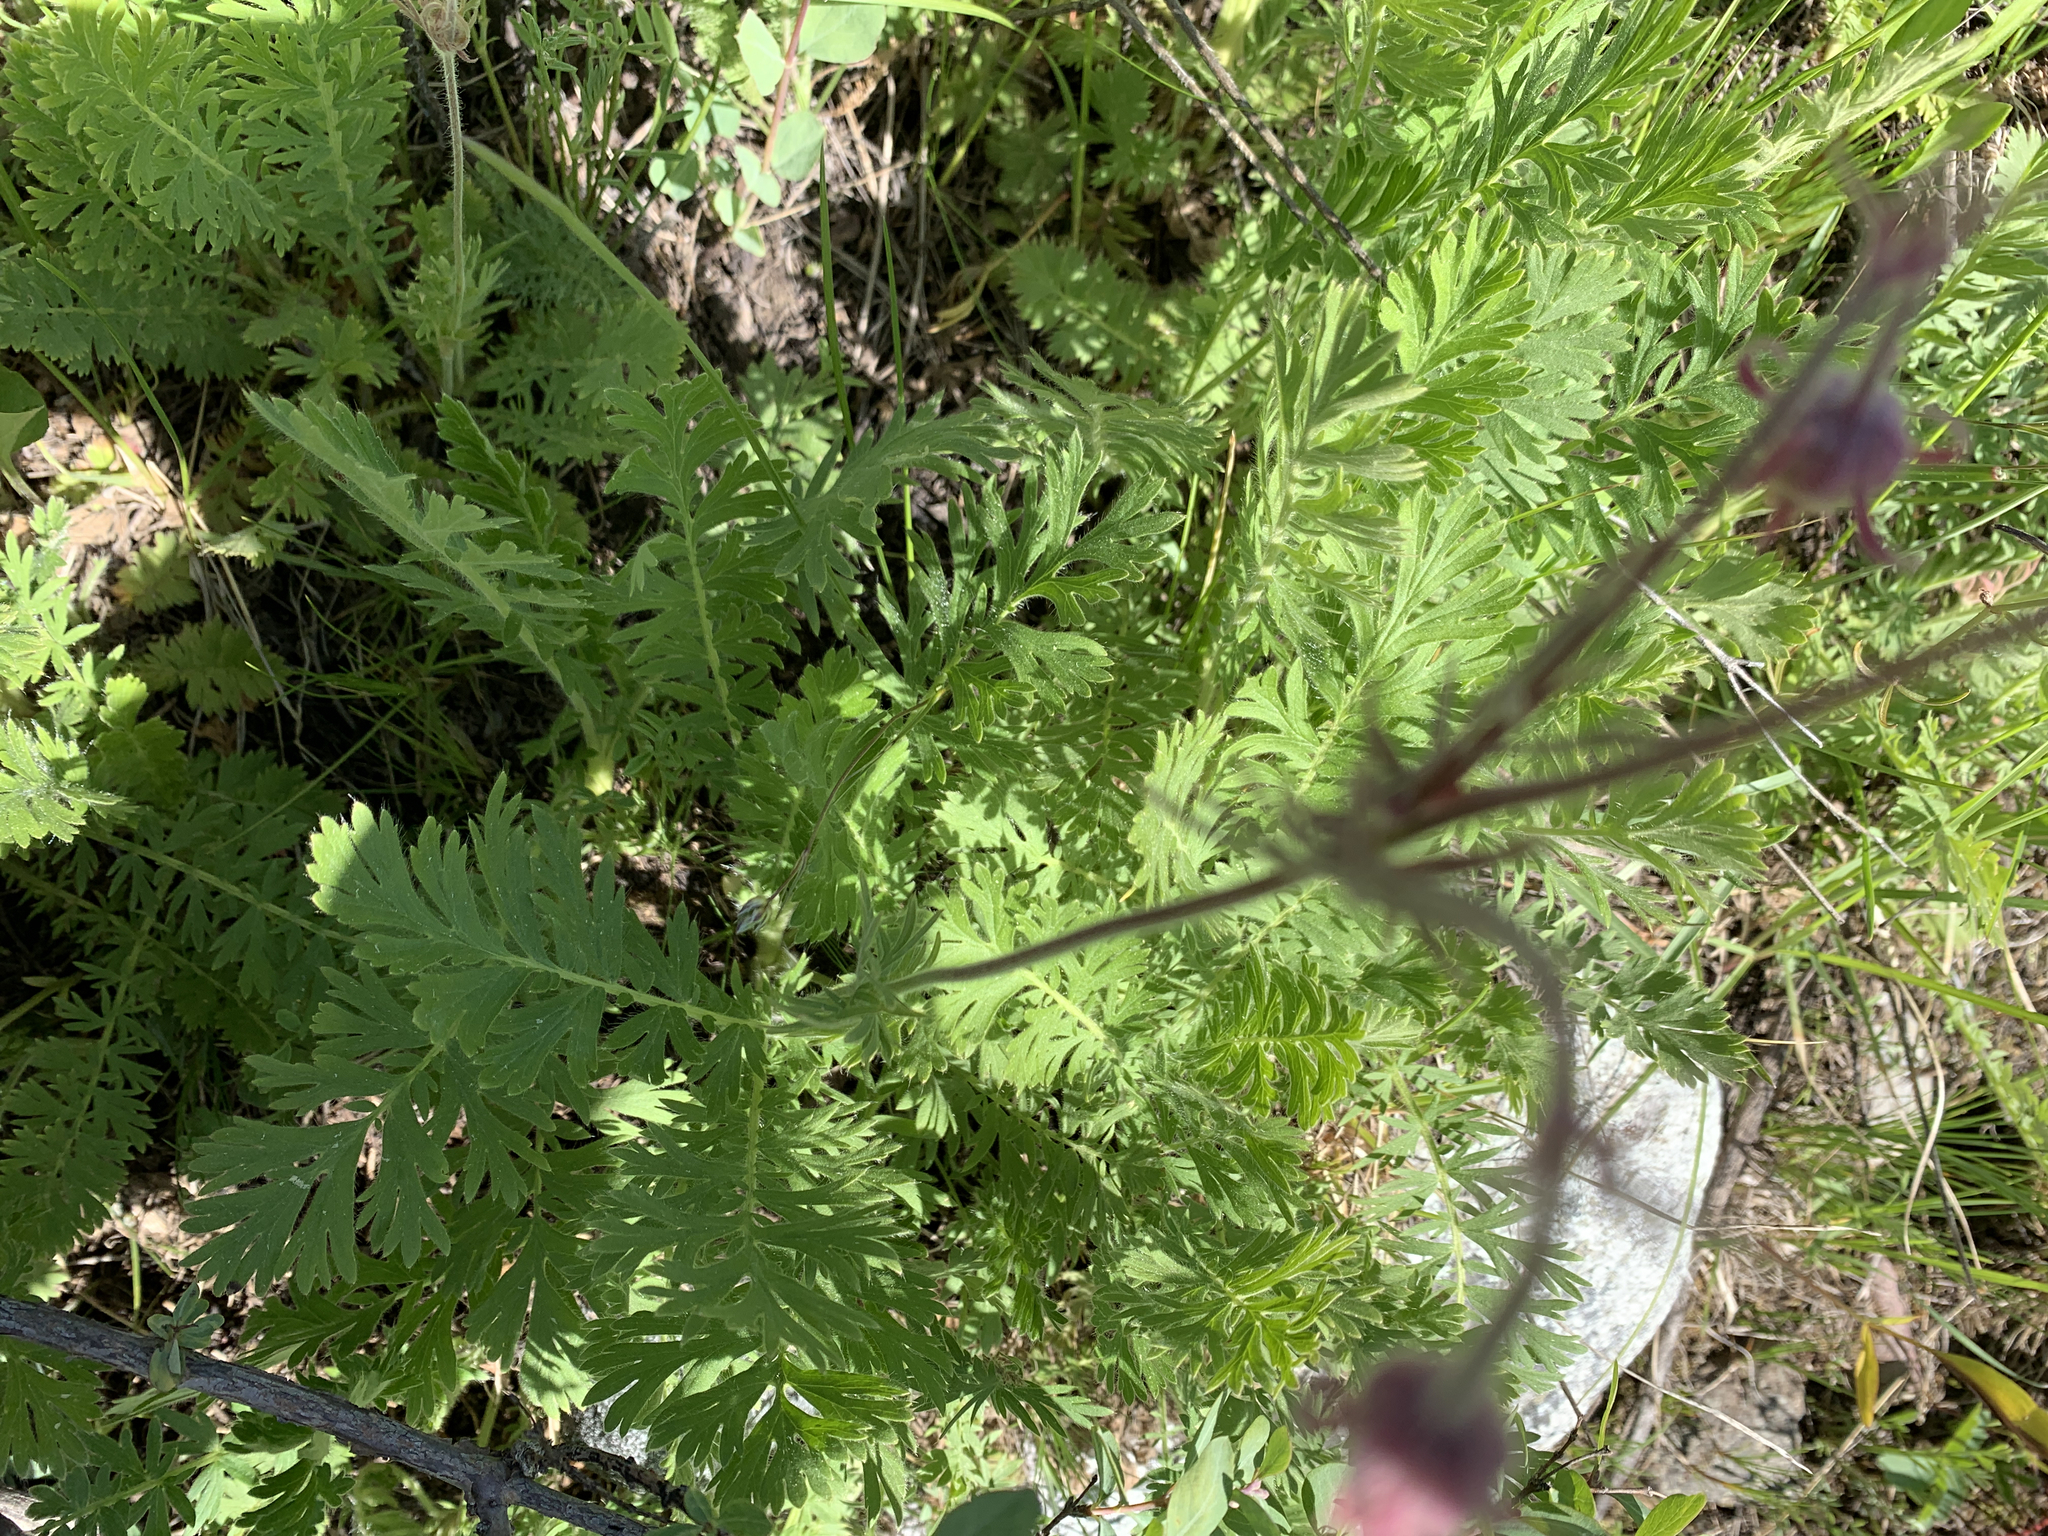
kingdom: Plantae
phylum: Tracheophyta
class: Magnoliopsida
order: Rosales
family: Rosaceae
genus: Geum
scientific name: Geum triflorum
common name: Old man's whiskers
